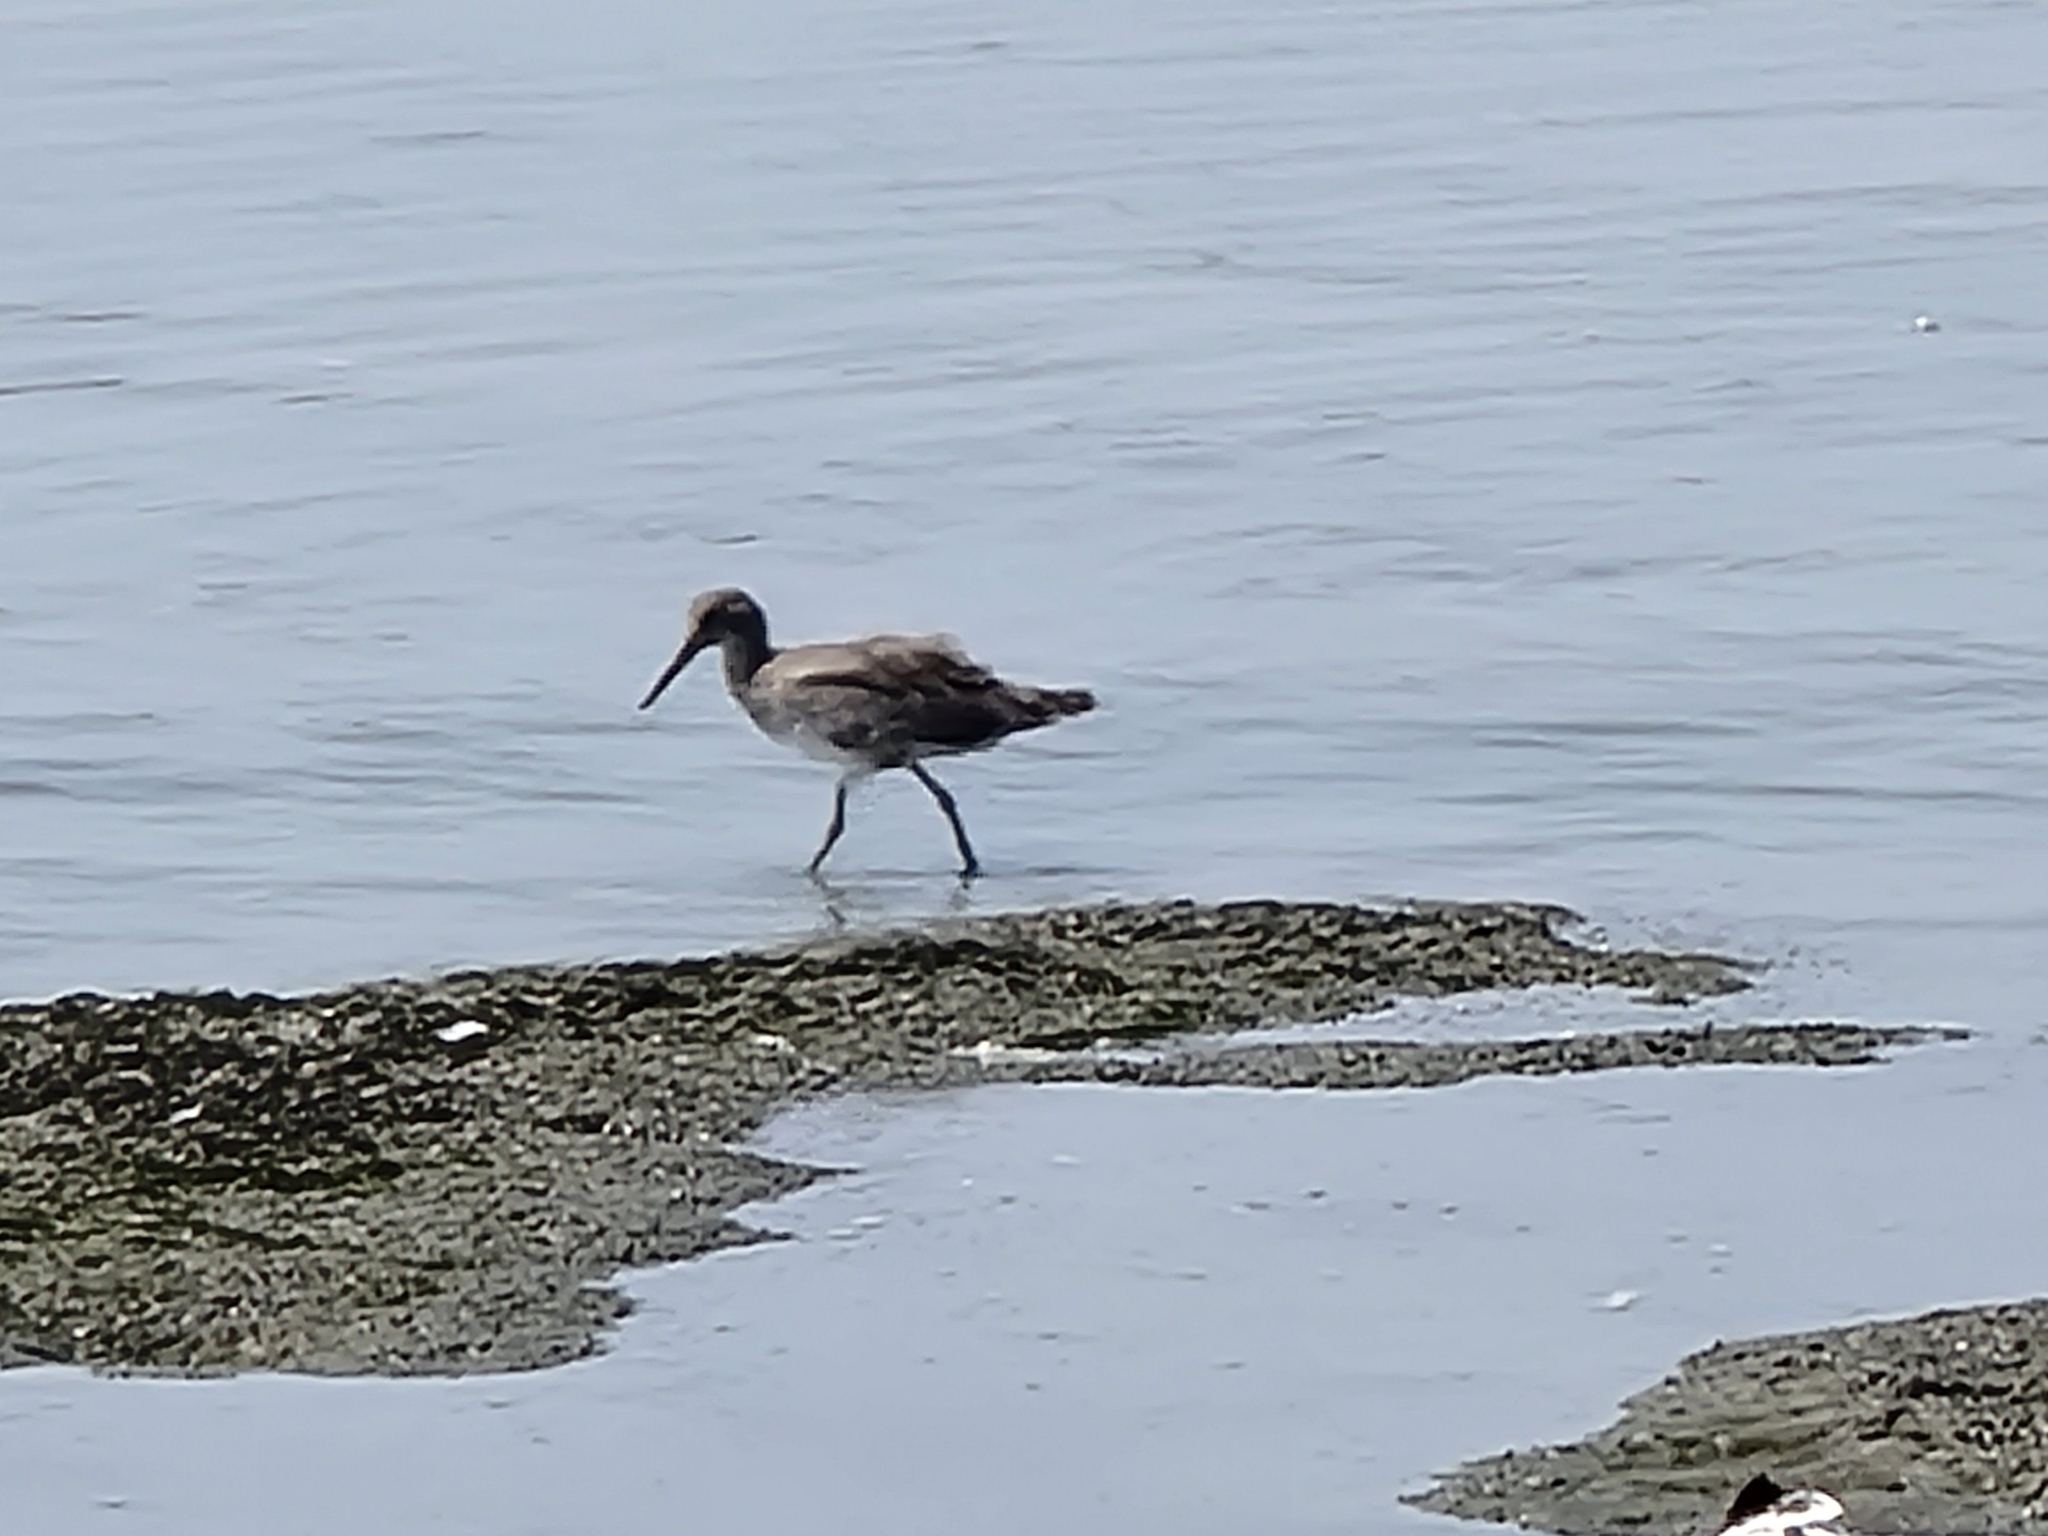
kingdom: Animalia
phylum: Chordata
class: Aves
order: Charadriiformes
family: Scolopacidae
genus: Tringa
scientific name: Tringa semipalmata
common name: Willet
